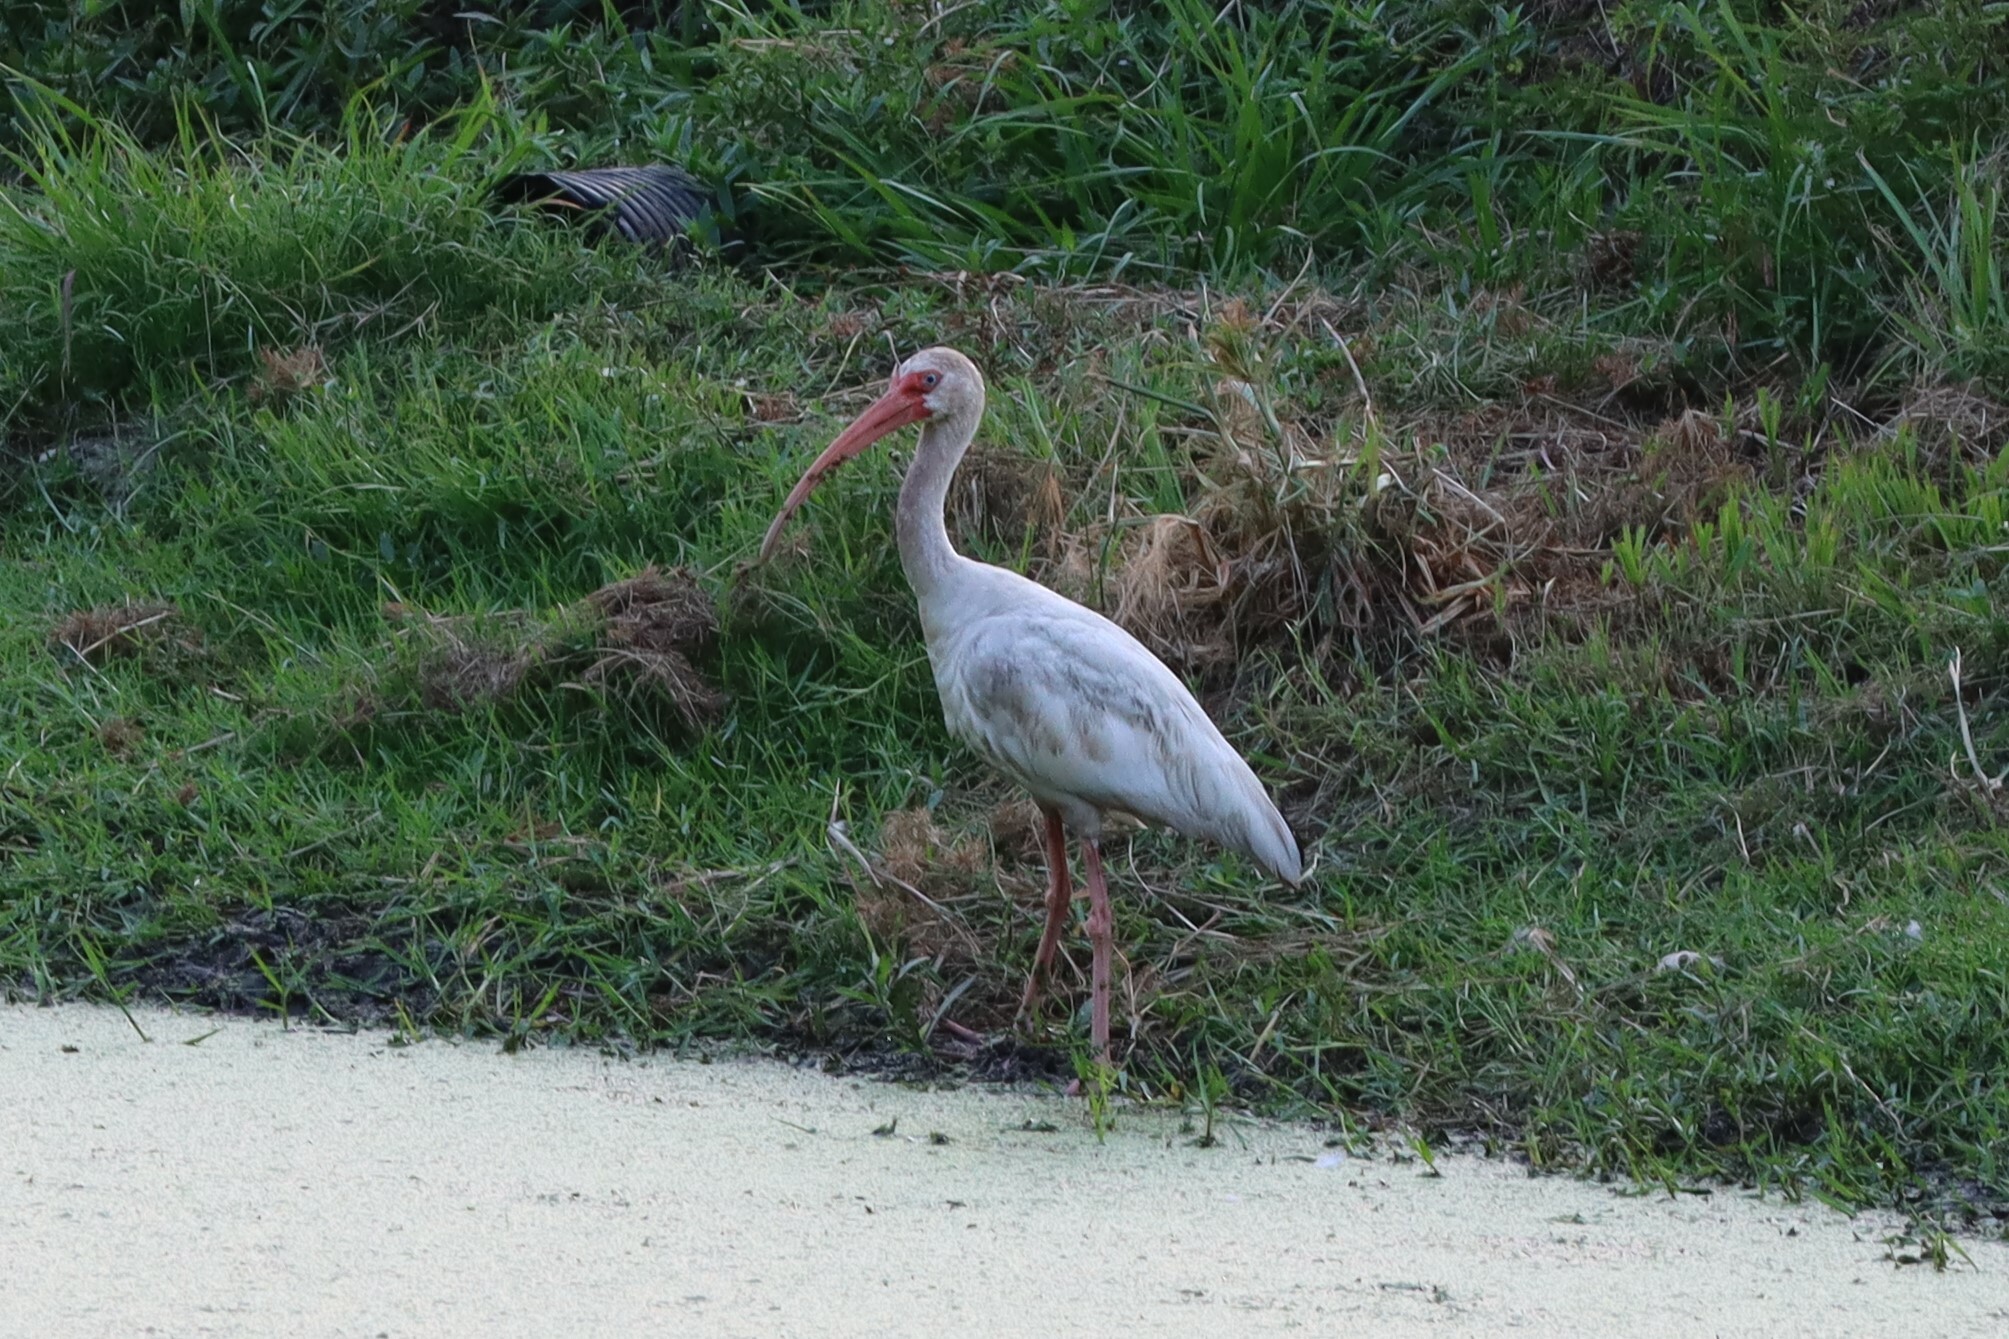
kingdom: Animalia
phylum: Chordata
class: Aves
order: Pelecaniformes
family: Threskiornithidae
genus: Eudocimus
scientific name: Eudocimus albus
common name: White ibis
